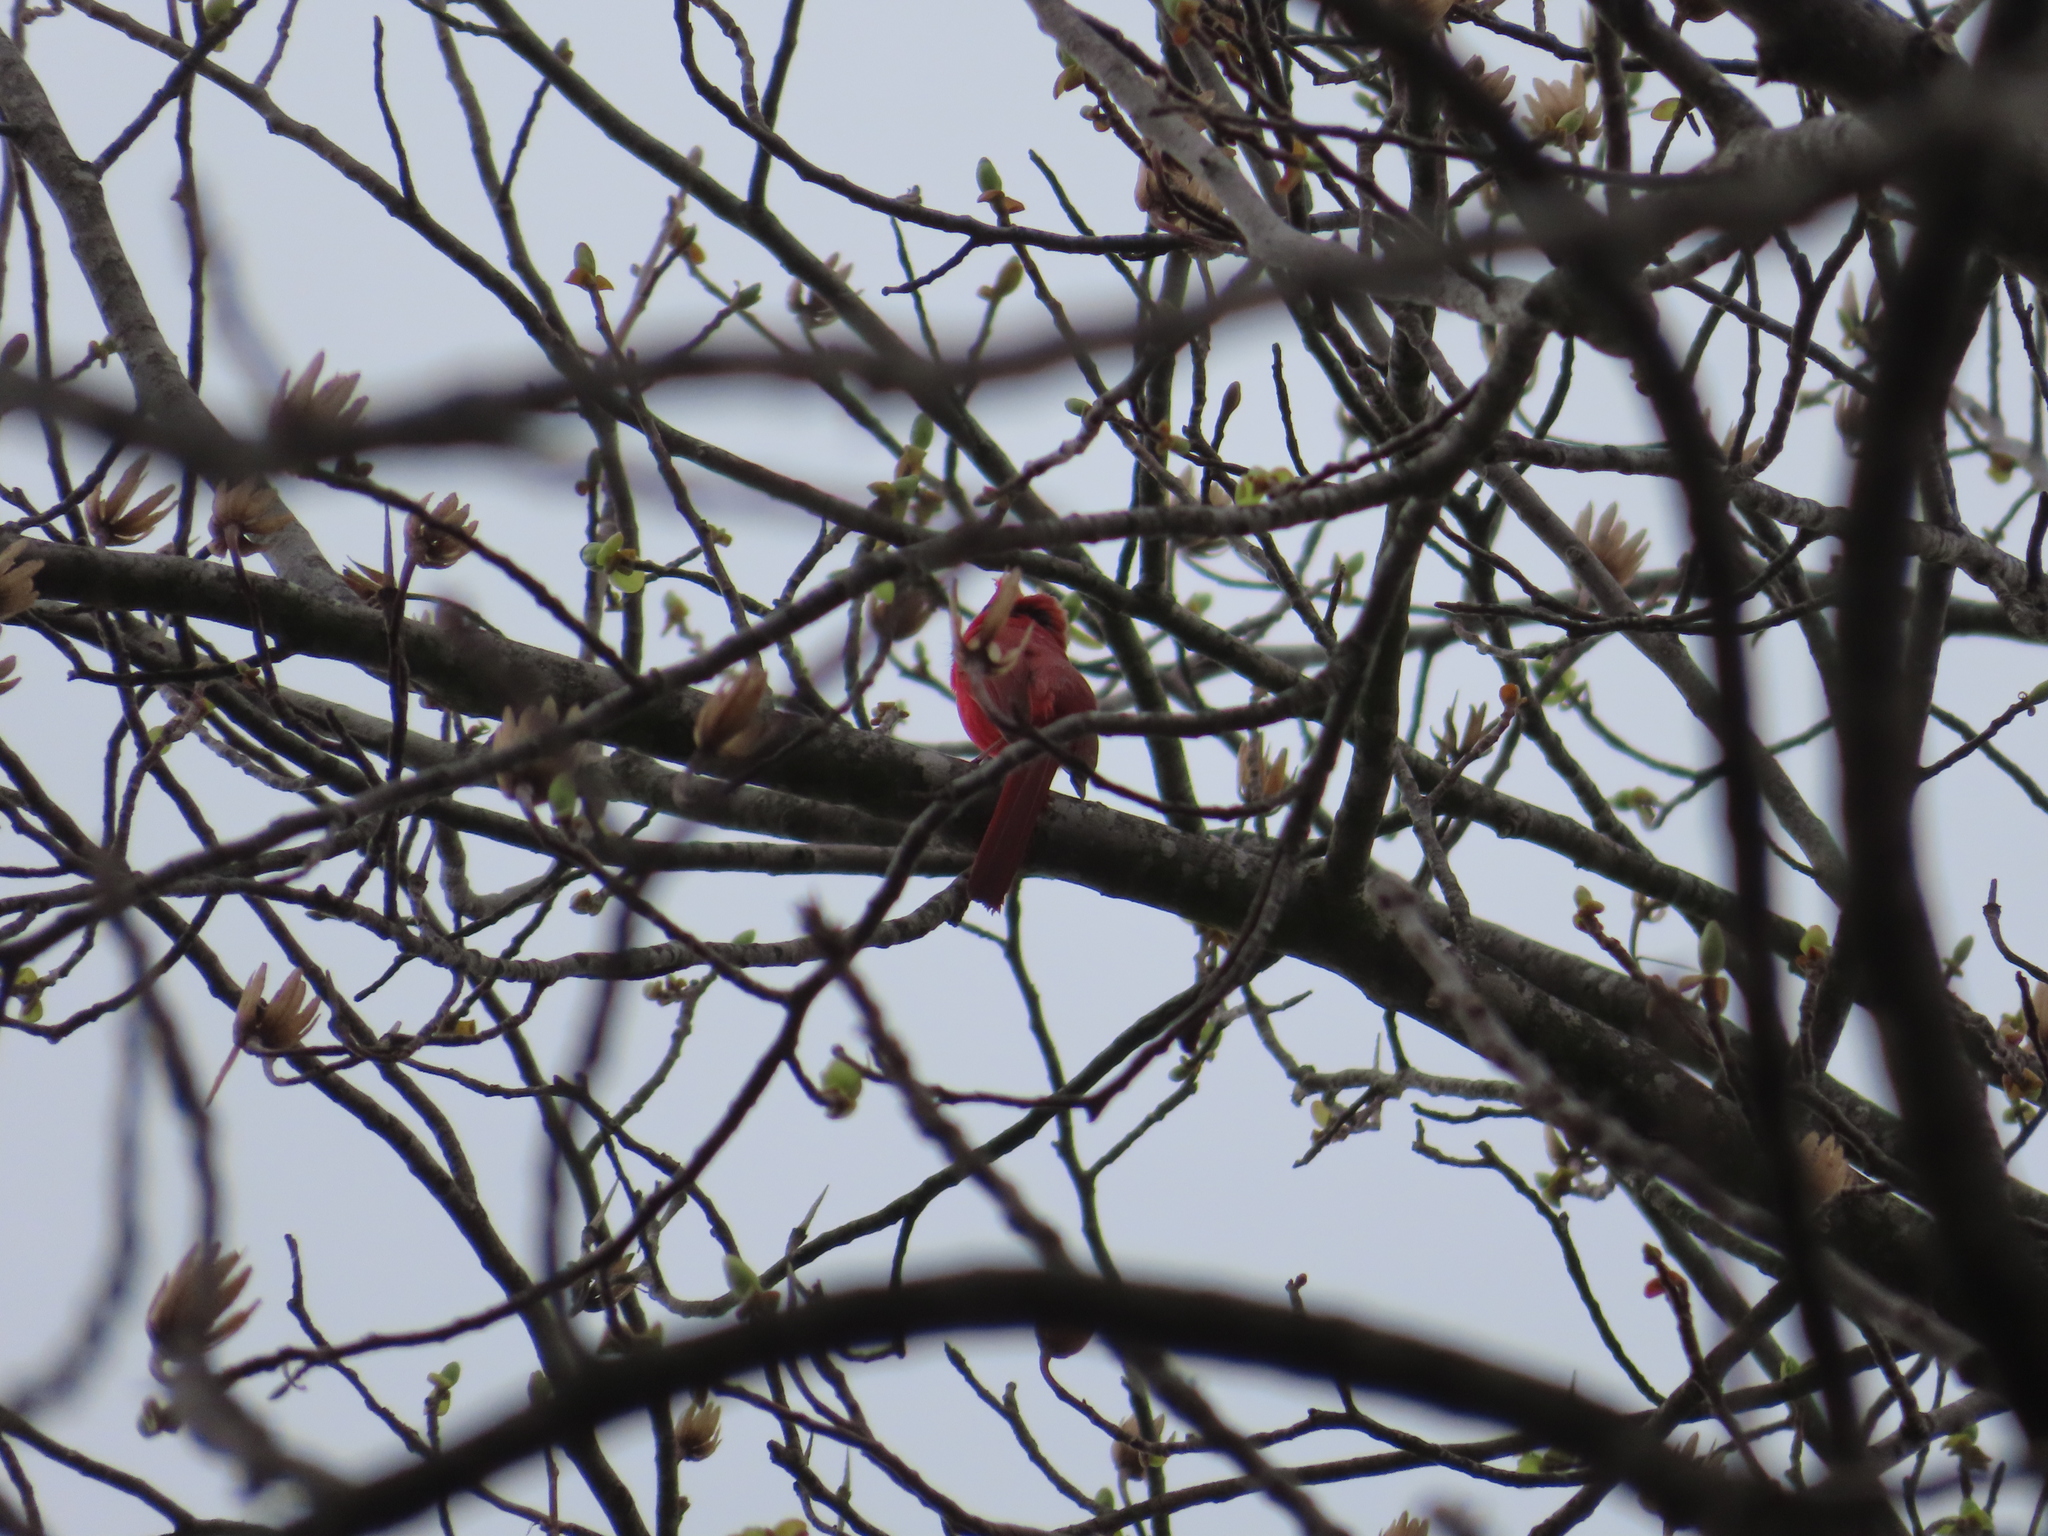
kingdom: Animalia
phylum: Chordata
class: Aves
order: Passeriformes
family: Cardinalidae
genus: Cardinalis
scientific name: Cardinalis cardinalis
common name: Northern cardinal
